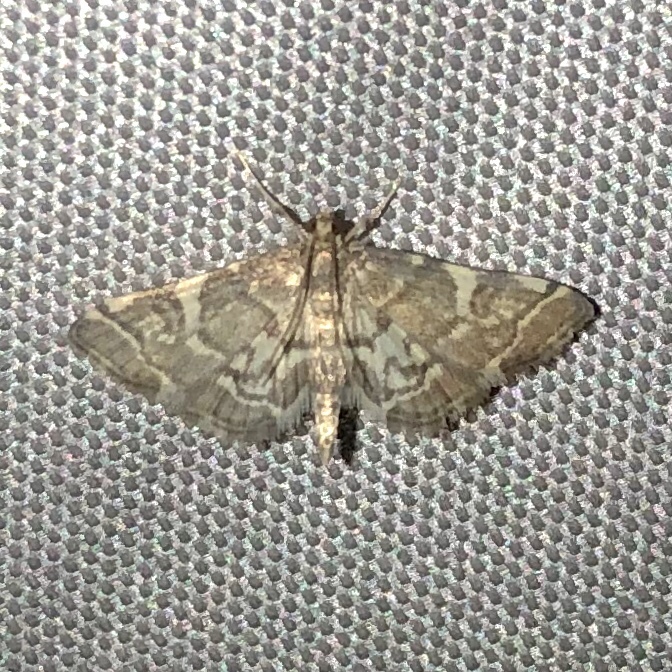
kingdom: Animalia
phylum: Arthropoda
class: Insecta
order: Lepidoptera
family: Crambidae
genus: Anageshna
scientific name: Anageshna primordialis
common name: Yellow-spotted webworm moth
